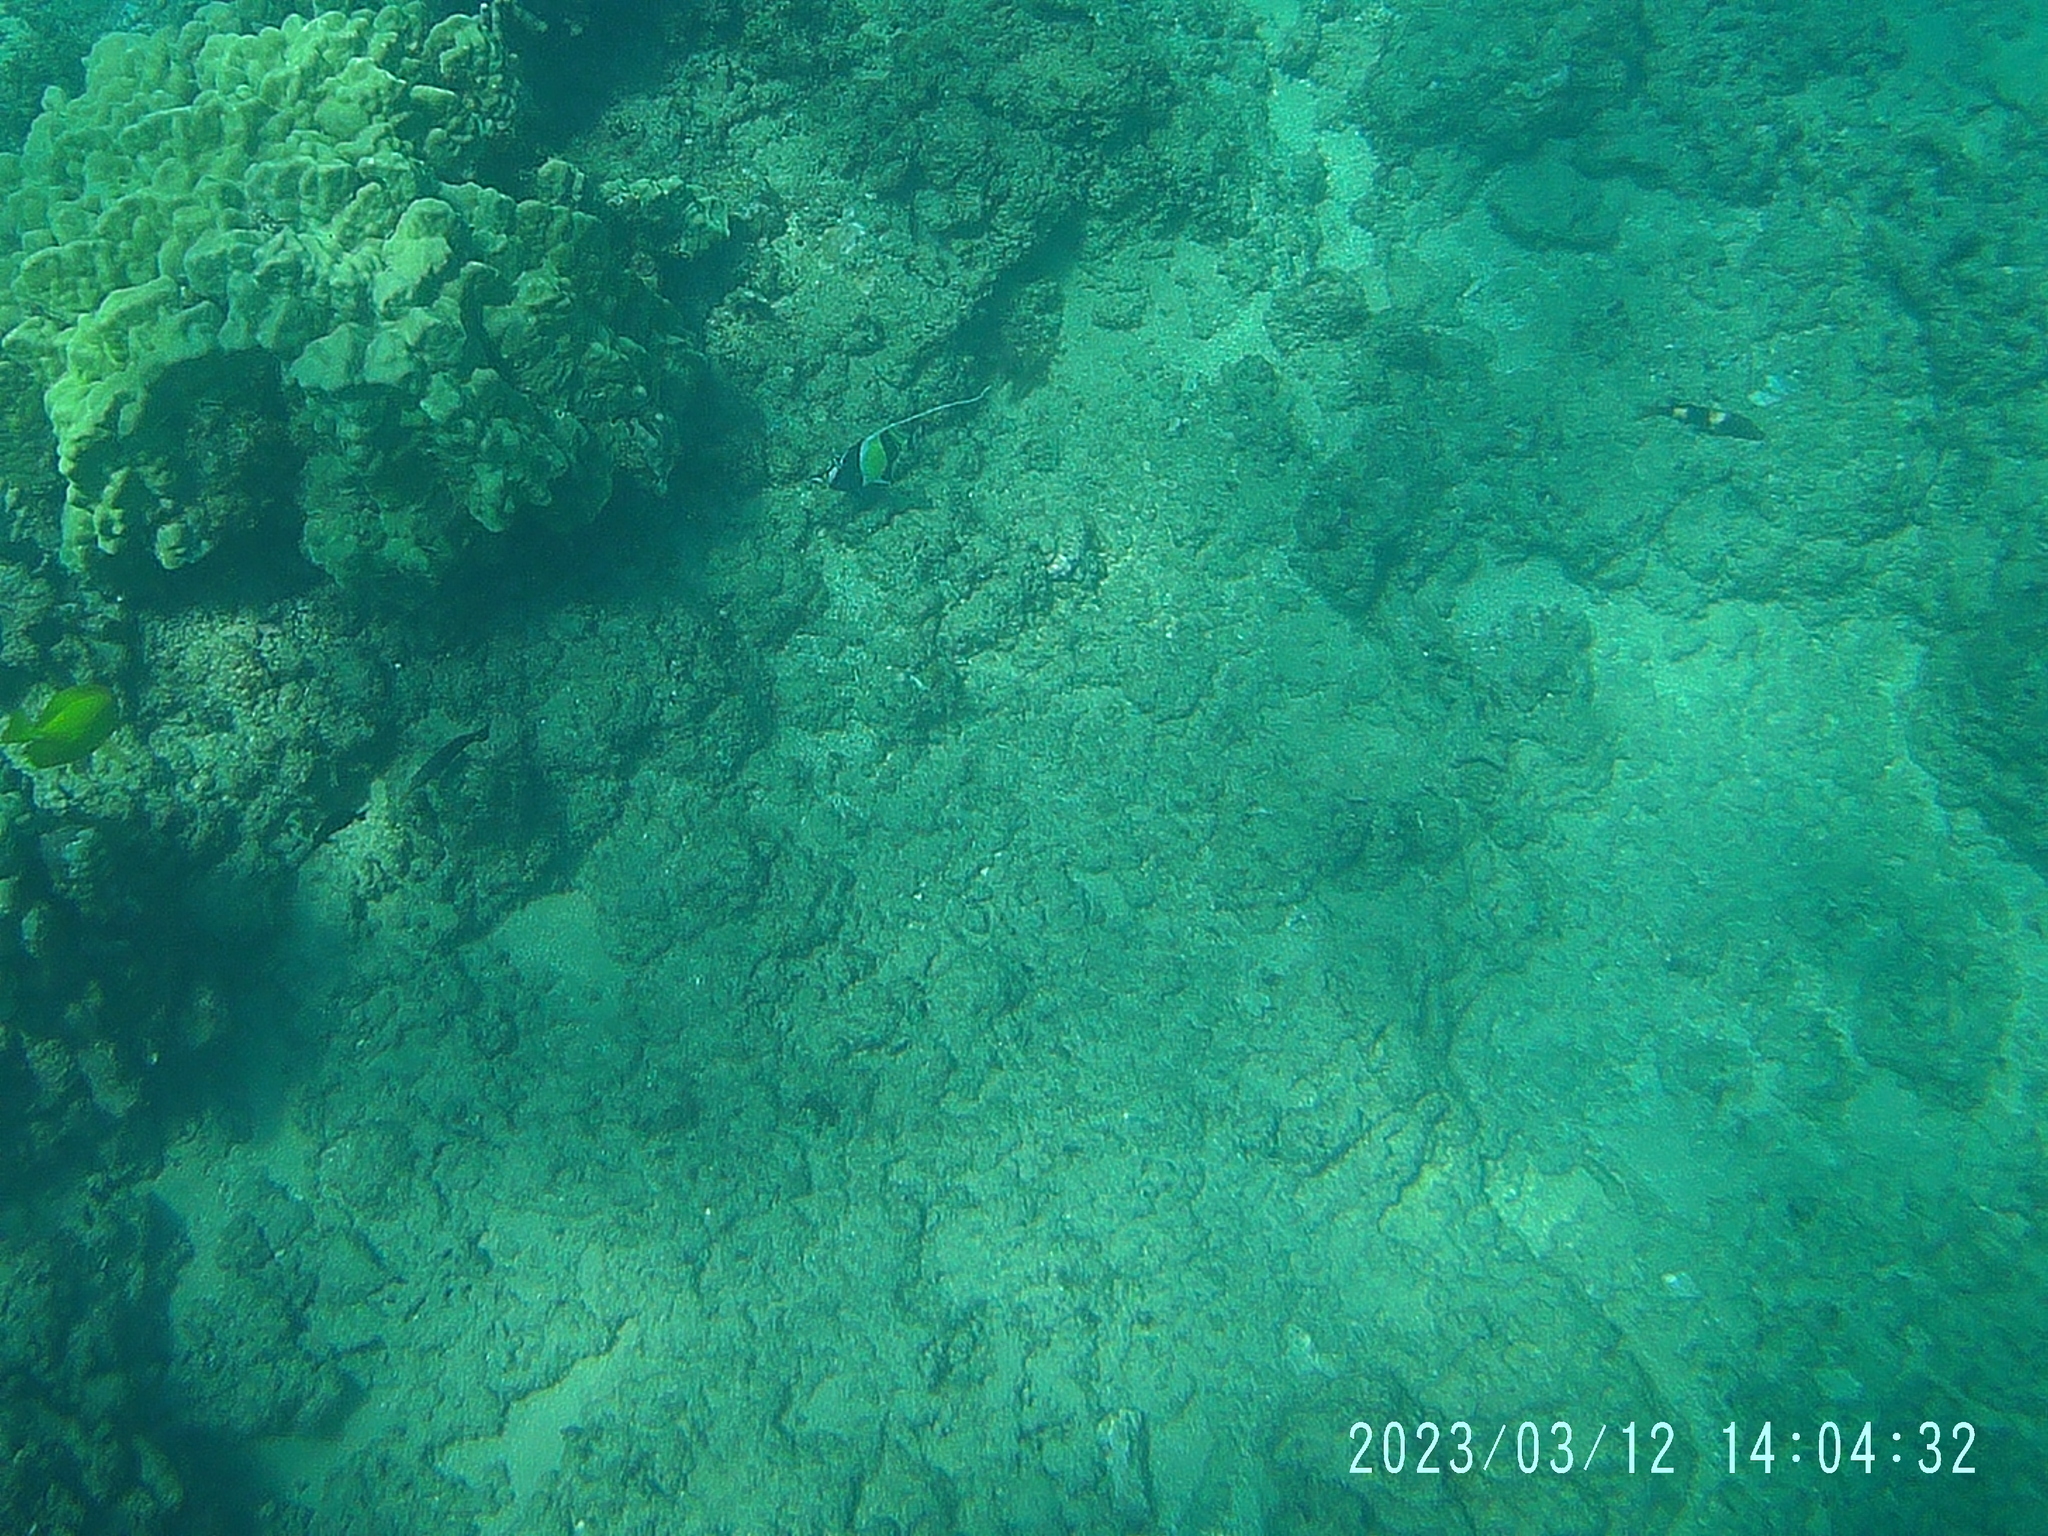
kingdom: Animalia
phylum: Chordata
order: Perciformes
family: Acanthuridae
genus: Zebrasoma
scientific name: Zebrasoma flavescens
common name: Yellow tang
